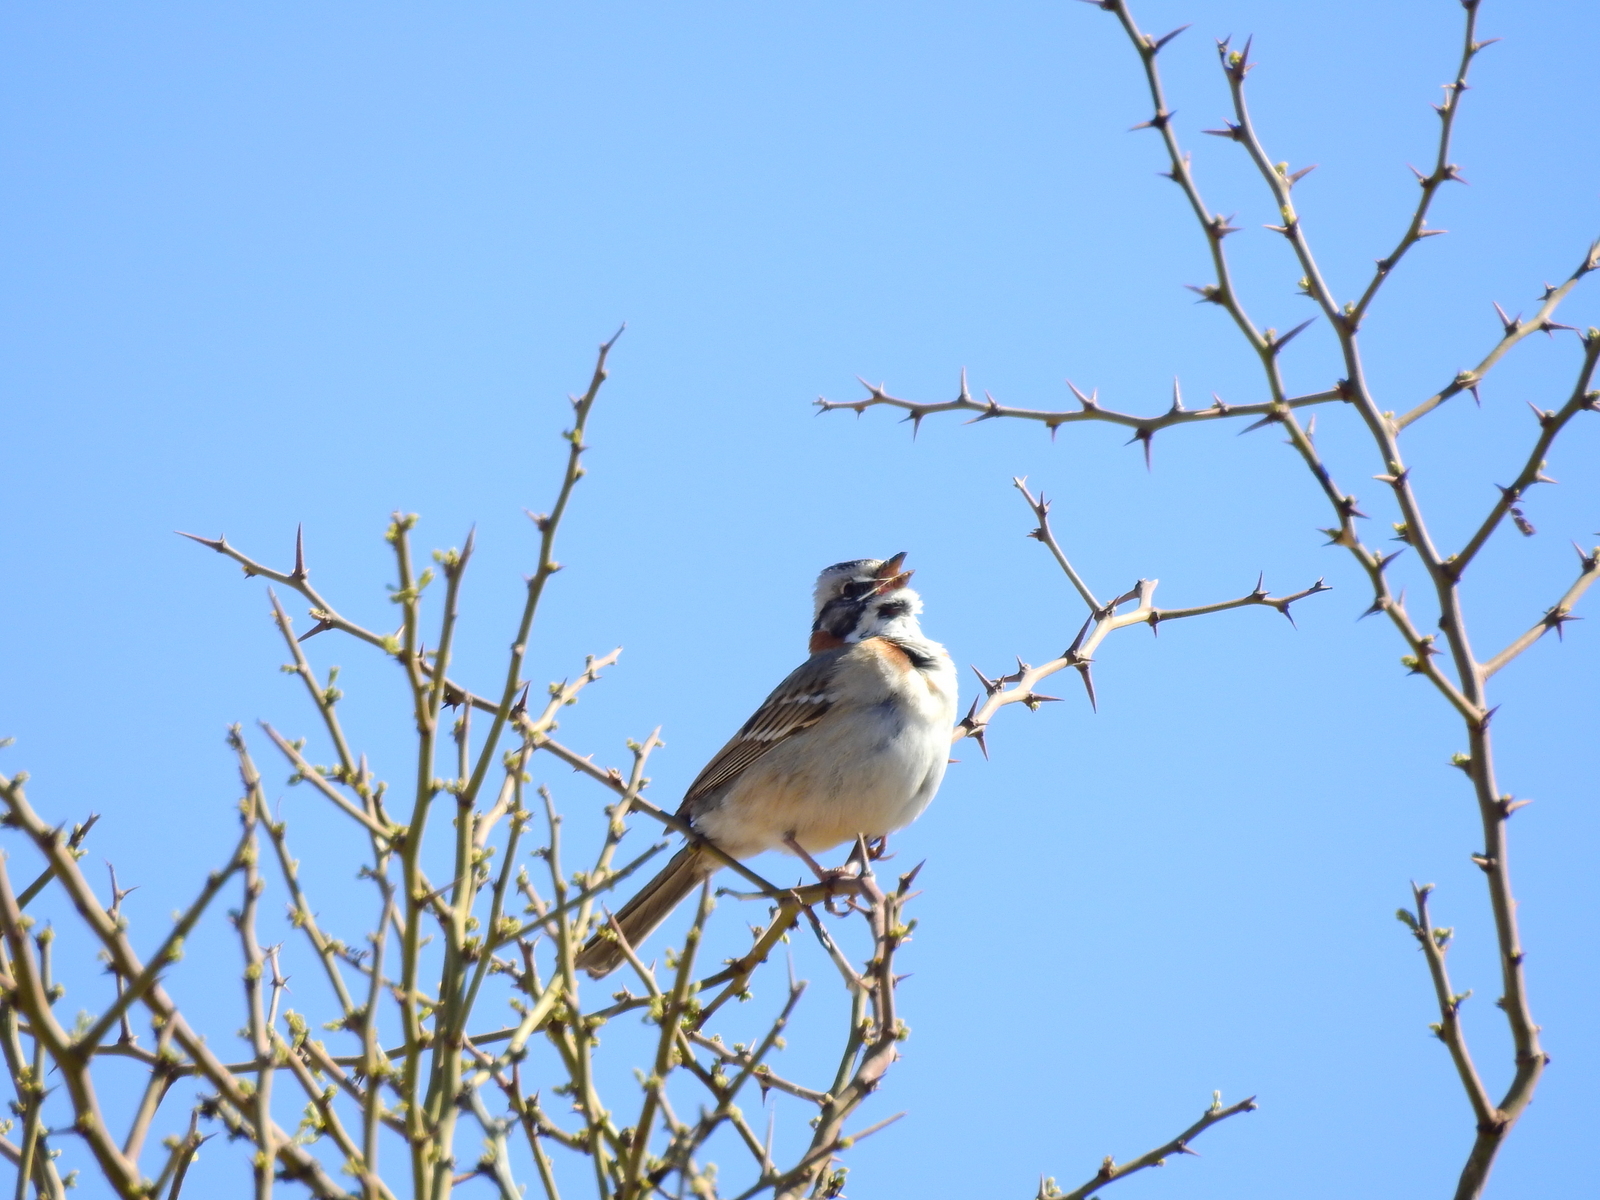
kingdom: Animalia
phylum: Chordata
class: Aves
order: Passeriformes
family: Passerellidae
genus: Zonotrichia
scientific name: Zonotrichia capensis
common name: Rufous-collared sparrow
